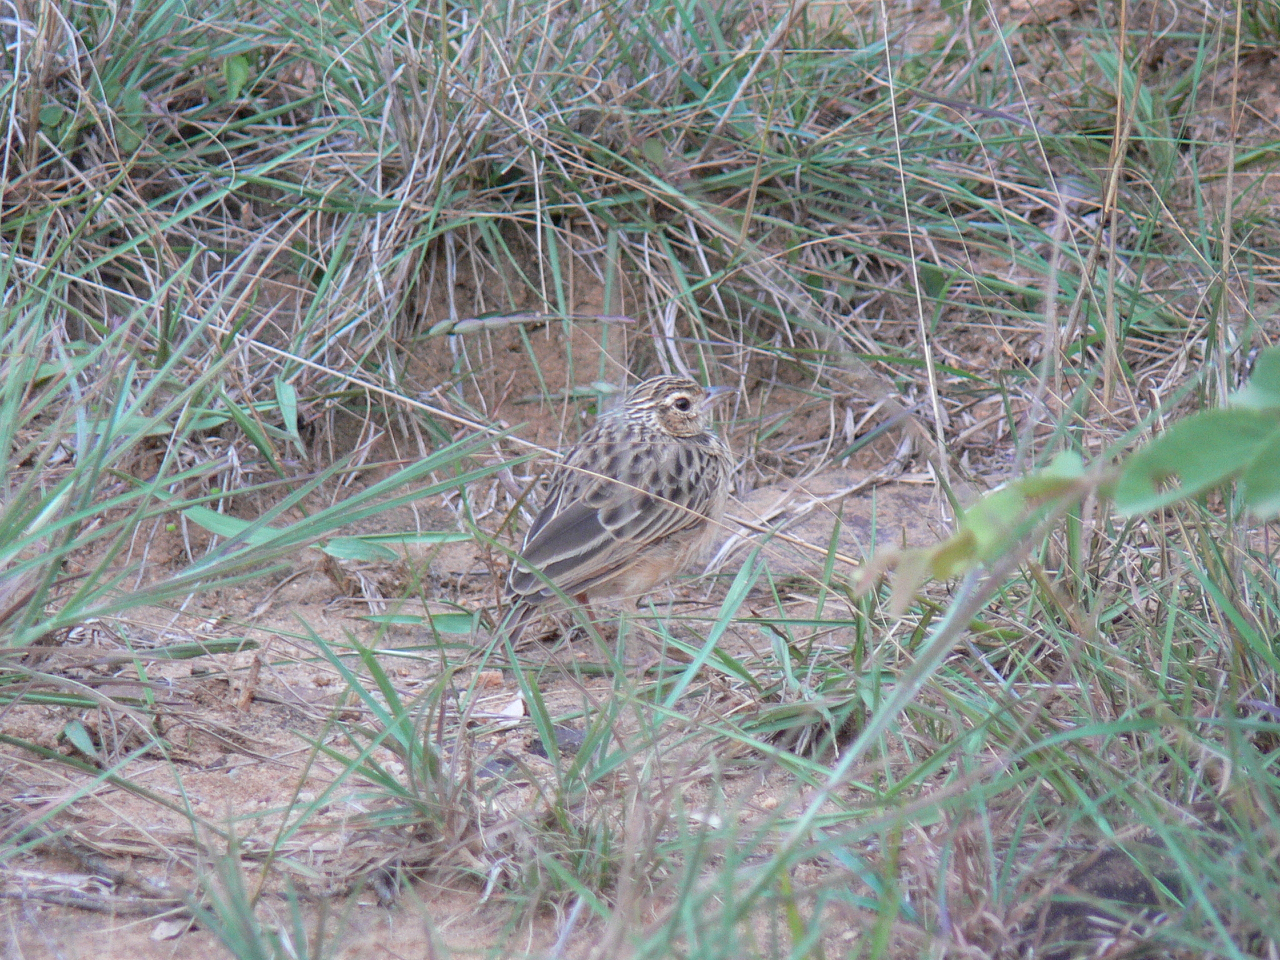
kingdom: Animalia
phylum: Chordata
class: Aves
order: Passeriformes
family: Alaudidae
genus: Mirafra
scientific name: Mirafra affinis
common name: Jerdon's bushlark
